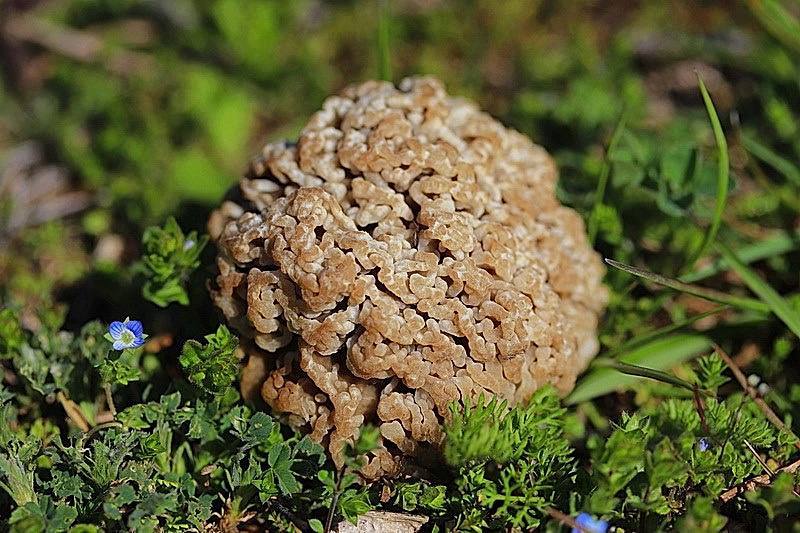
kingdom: Fungi
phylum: Ascomycota
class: Pezizomycetes
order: Pezizales
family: Morchellaceae
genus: Morchella
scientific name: Morchella steppicola
